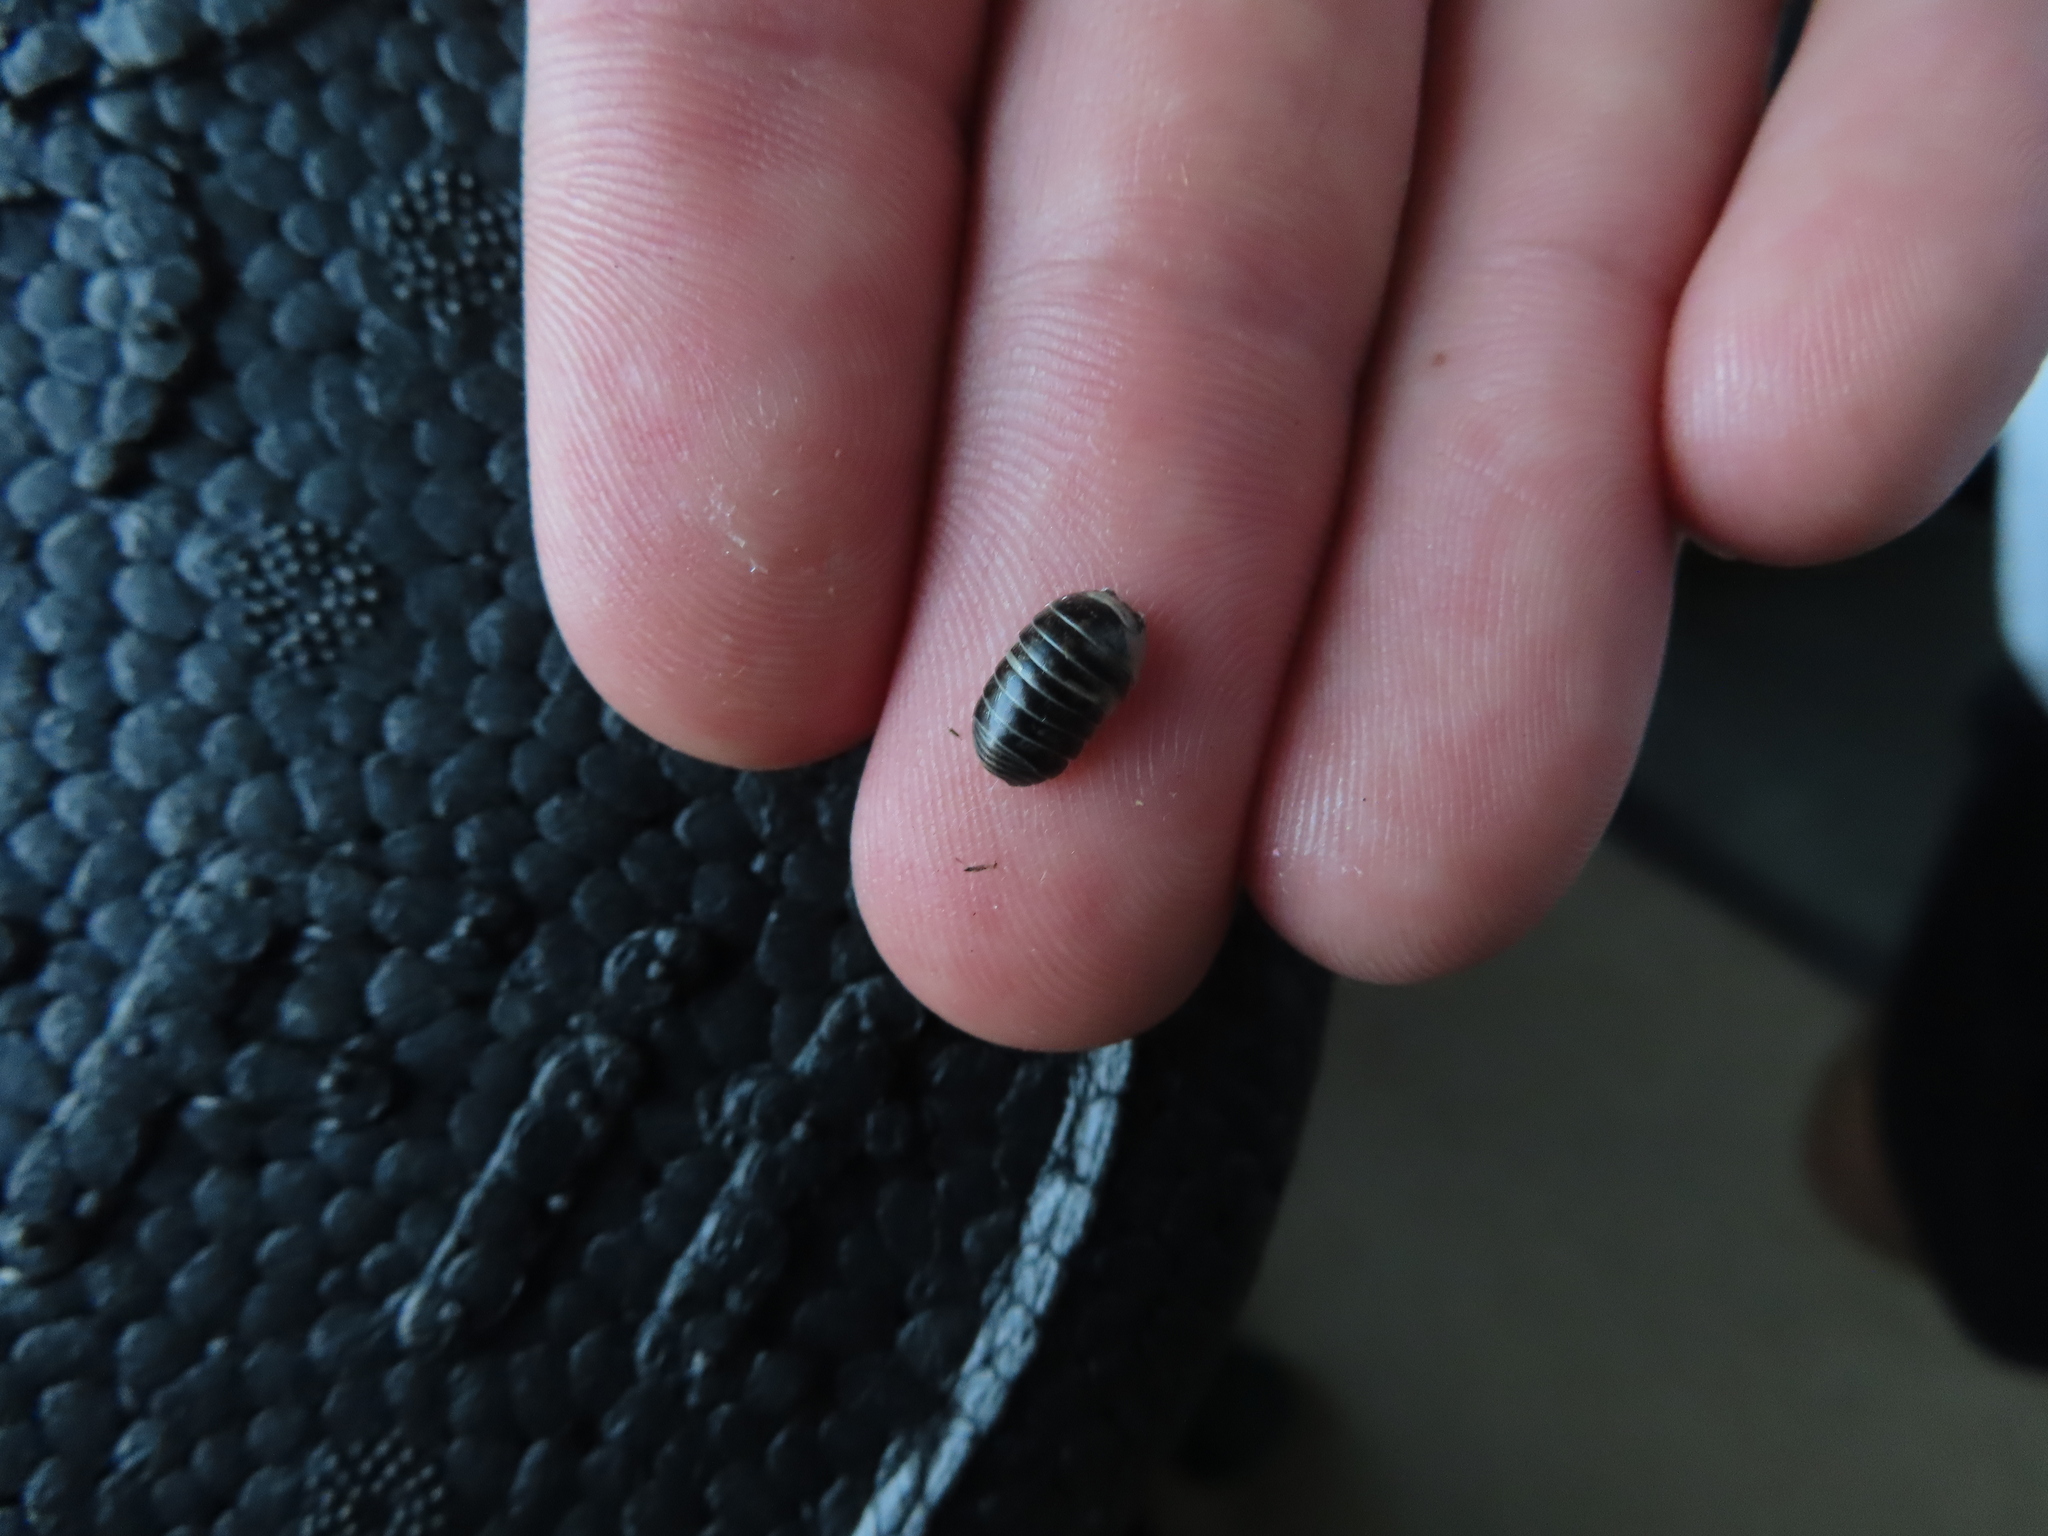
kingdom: Animalia
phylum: Arthropoda
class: Malacostraca
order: Isopoda
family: Armadillidiidae
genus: Armadillidium
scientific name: Armadillidium vulgare
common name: Common pill woodlouse
